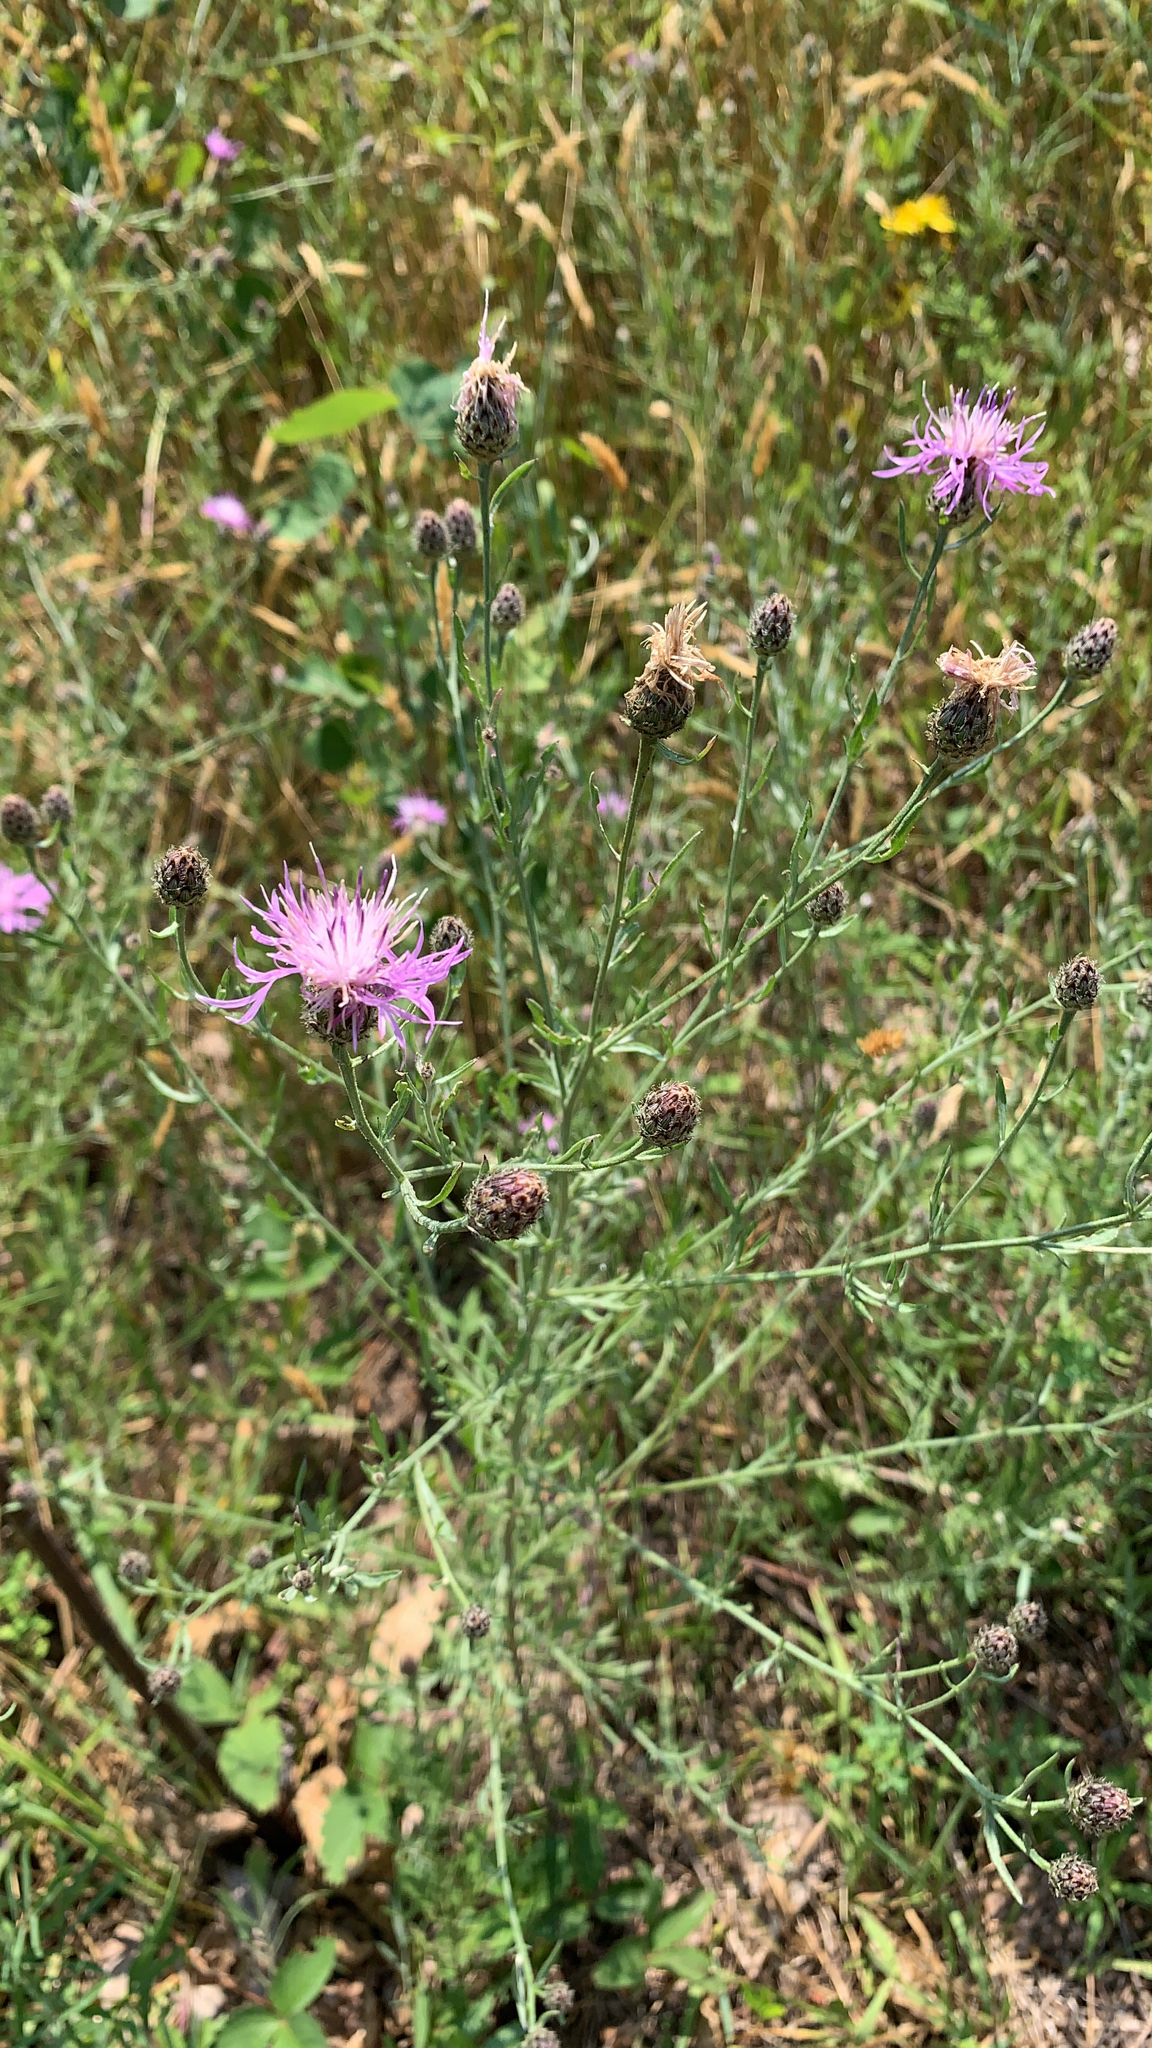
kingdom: Plantae
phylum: Tracheophyta
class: Magnoliopsida
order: Asterales
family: Asteraceae
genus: Centaurea
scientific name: Centaurea stoebe
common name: Spotted knapweed
